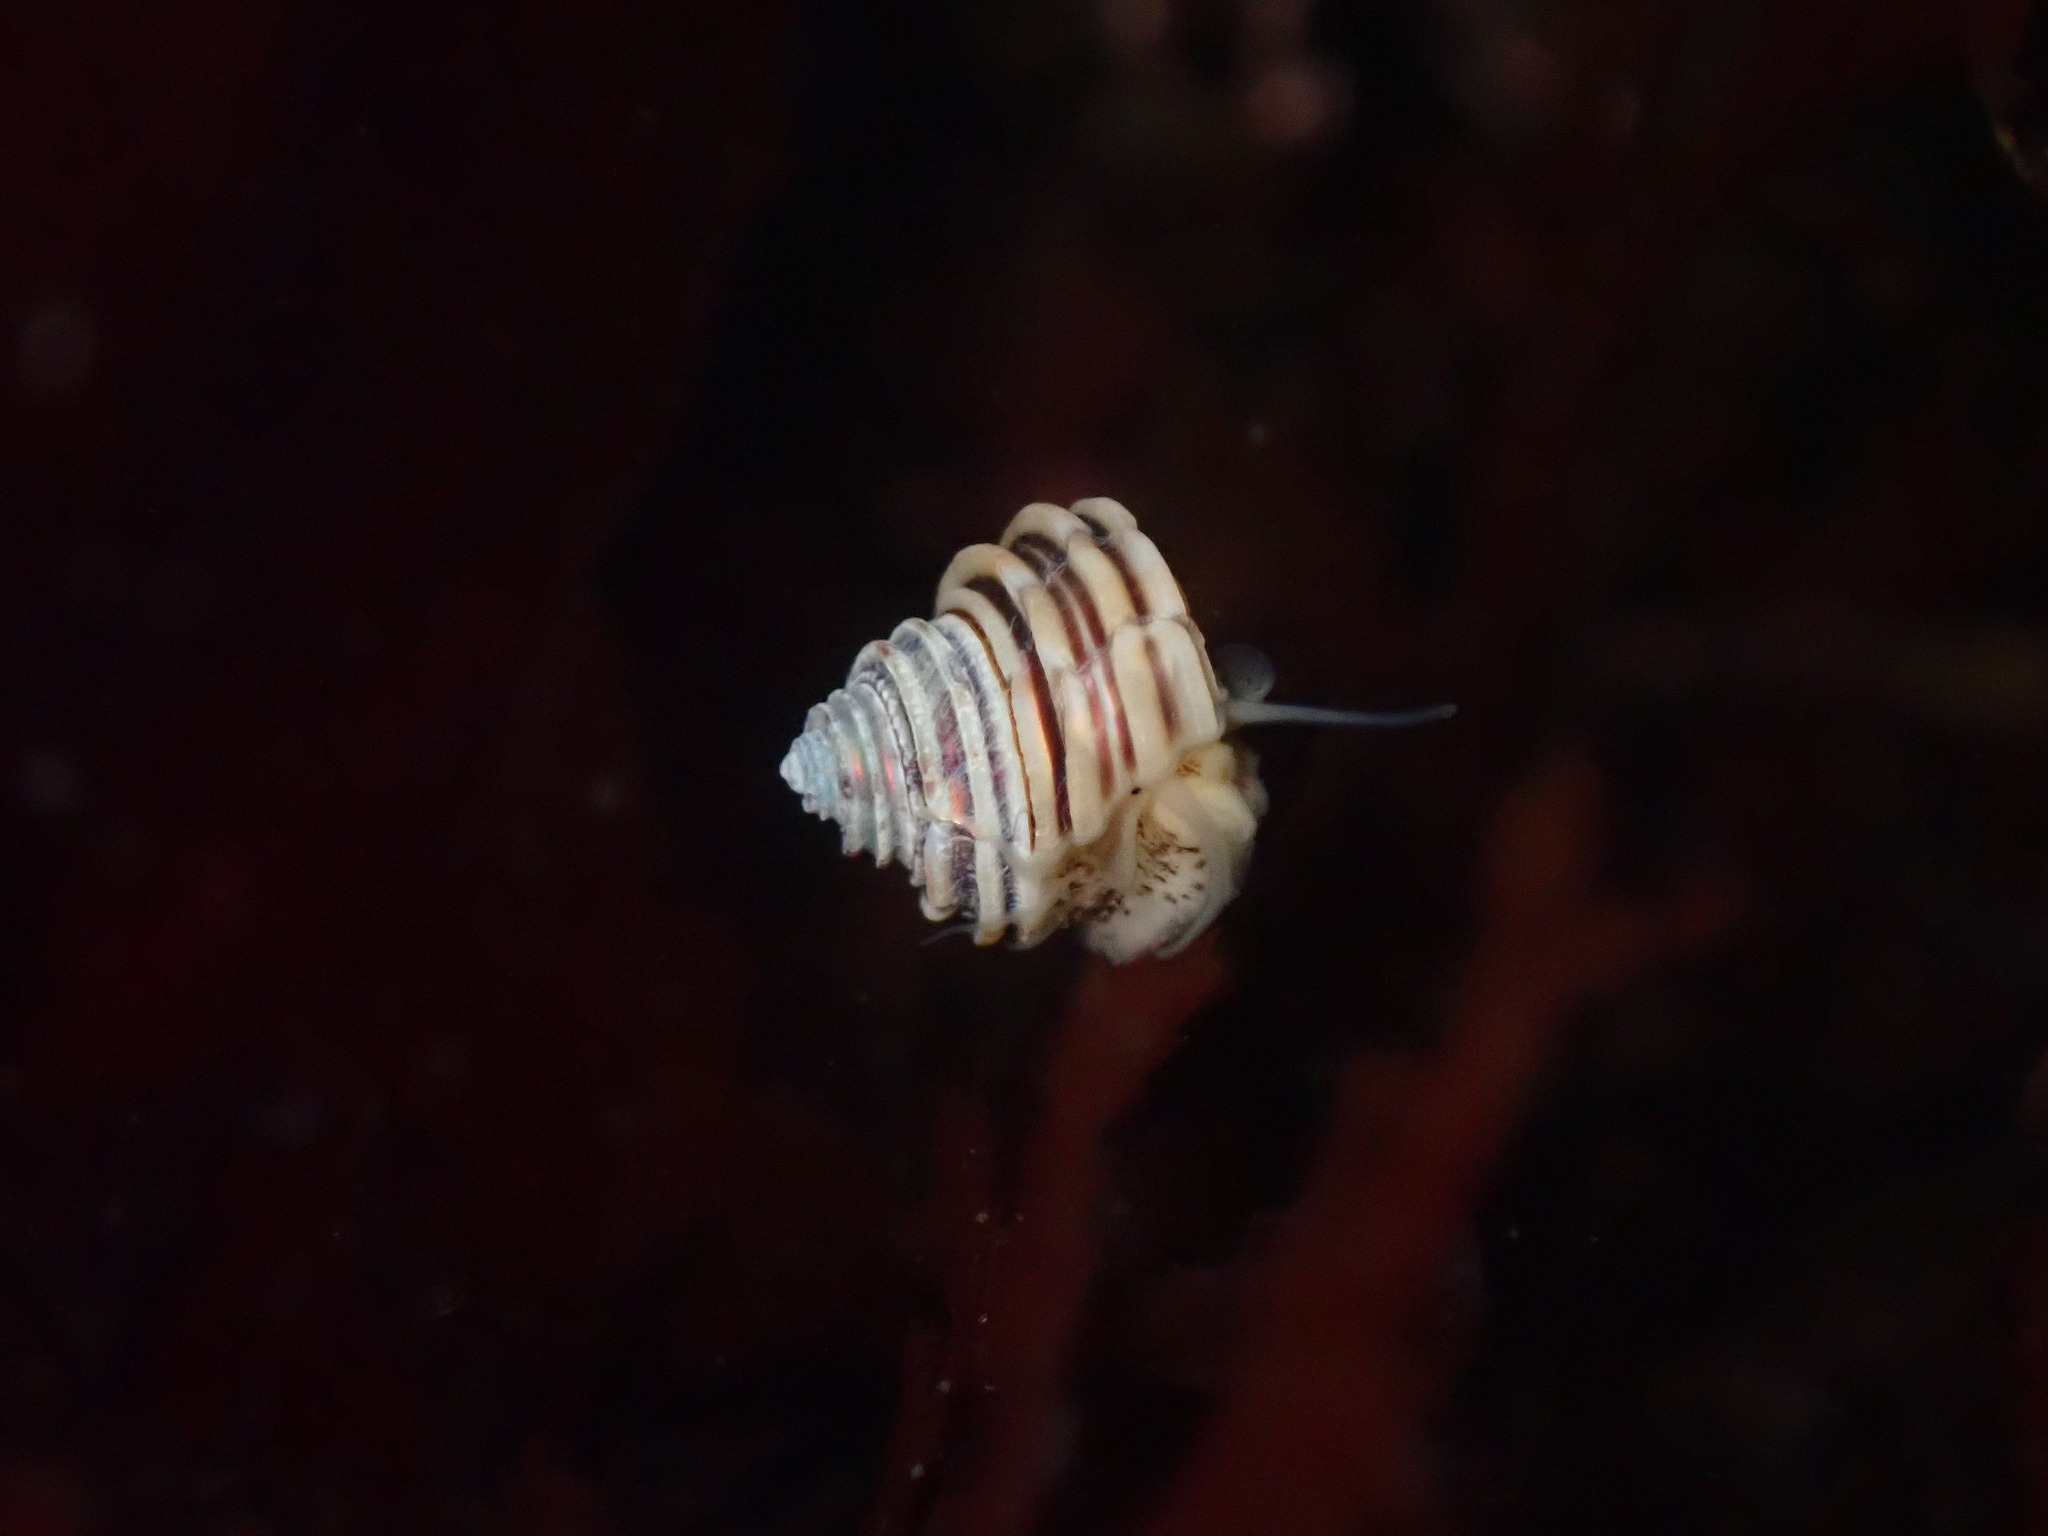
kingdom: Animalia
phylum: Mollusca
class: Gastropoda
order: Trochida
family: Calliostomatidae
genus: Calliostoma
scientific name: Calliostoma canaliculatum
